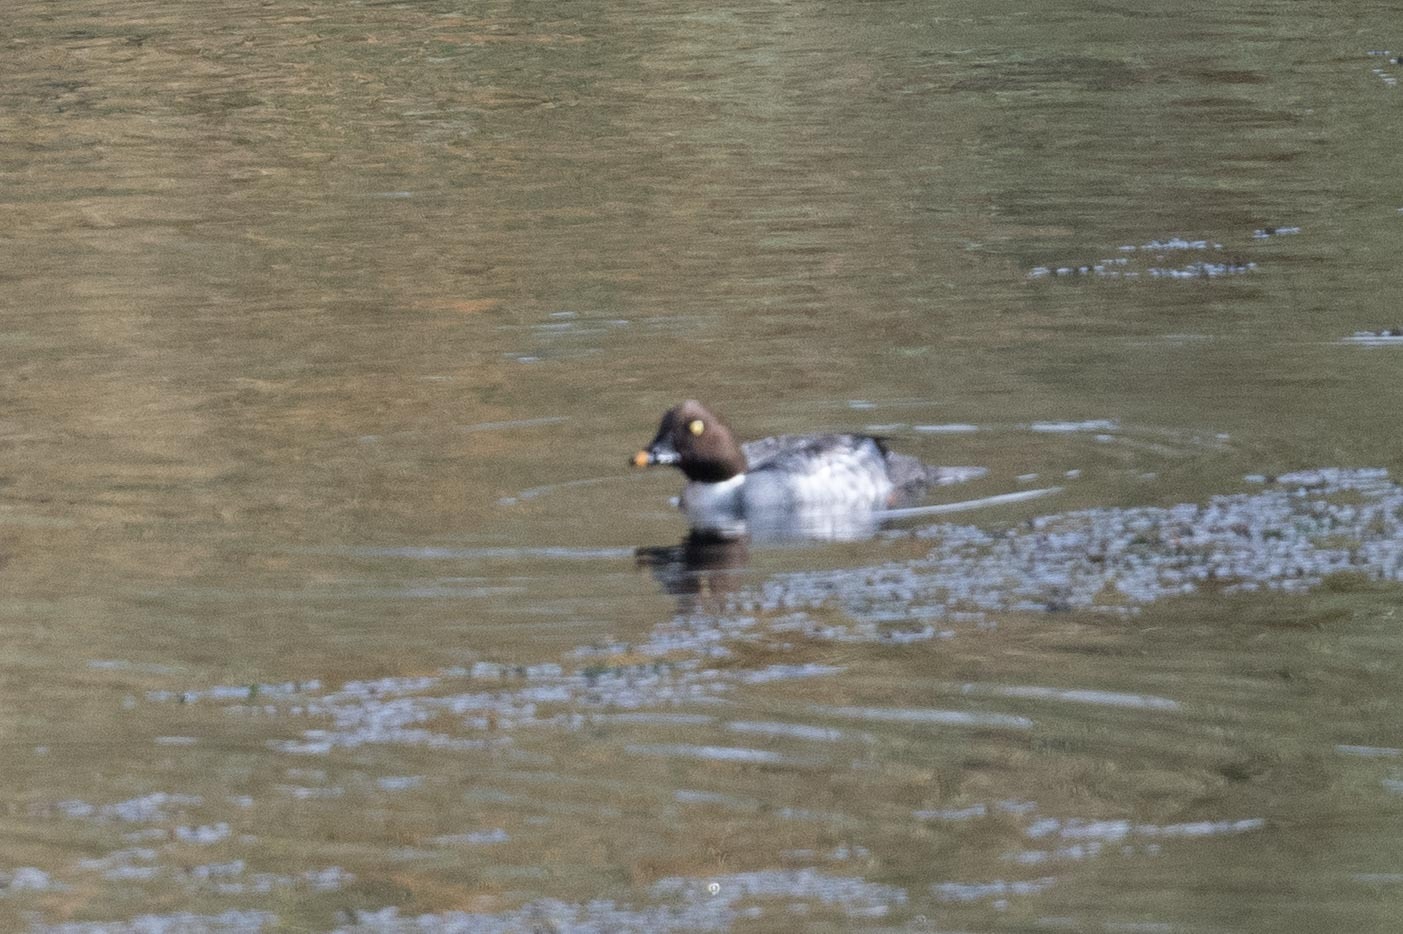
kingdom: Animalia
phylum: Chordata
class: Aves
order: Anseriformes
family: Anatidae
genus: Bucephala
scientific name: Bucephala clangula
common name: Common goldeneye
